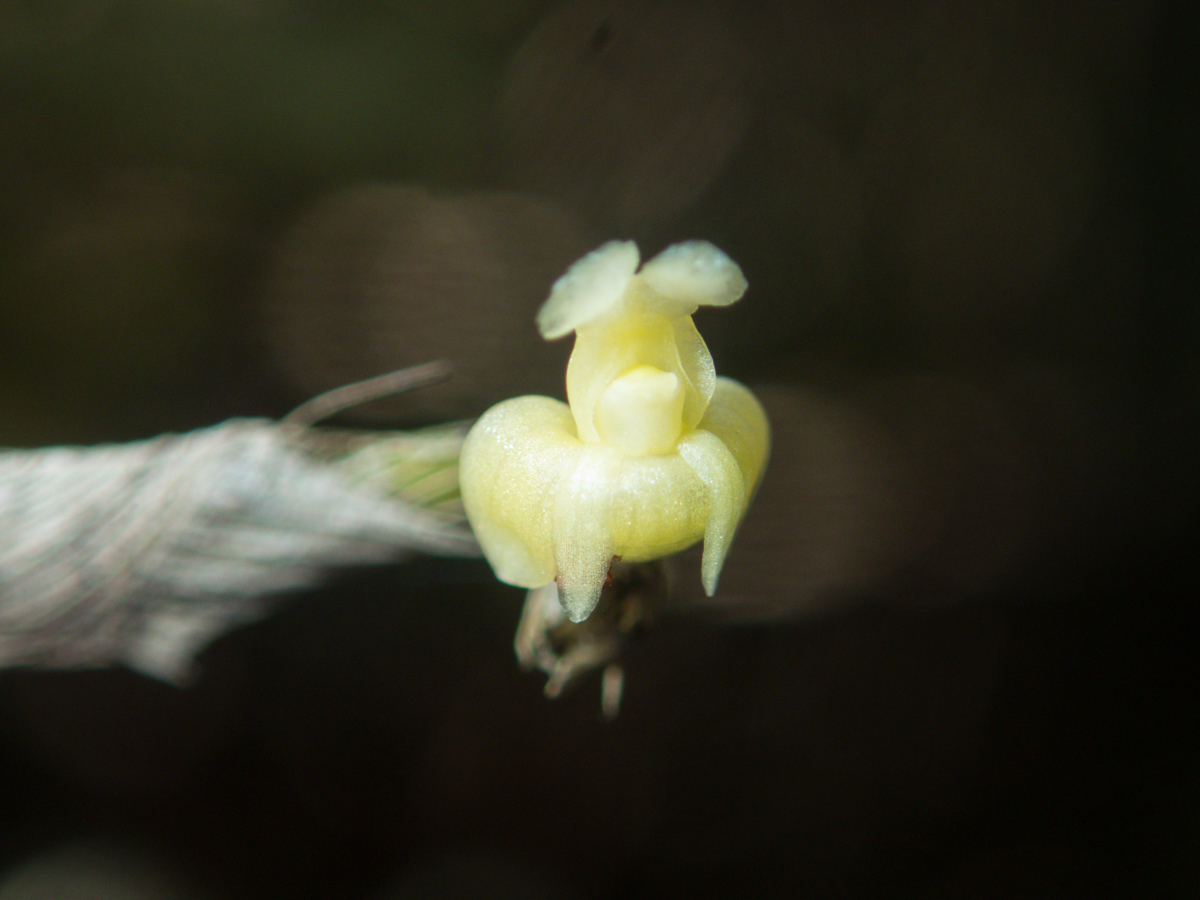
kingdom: Plantae
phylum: Tracheophyta
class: Liliopsida
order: Asparagales
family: Orchidaceae
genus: Dendrobium
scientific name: Dendrobium aloifolium
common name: Aloe-like dendrobium
